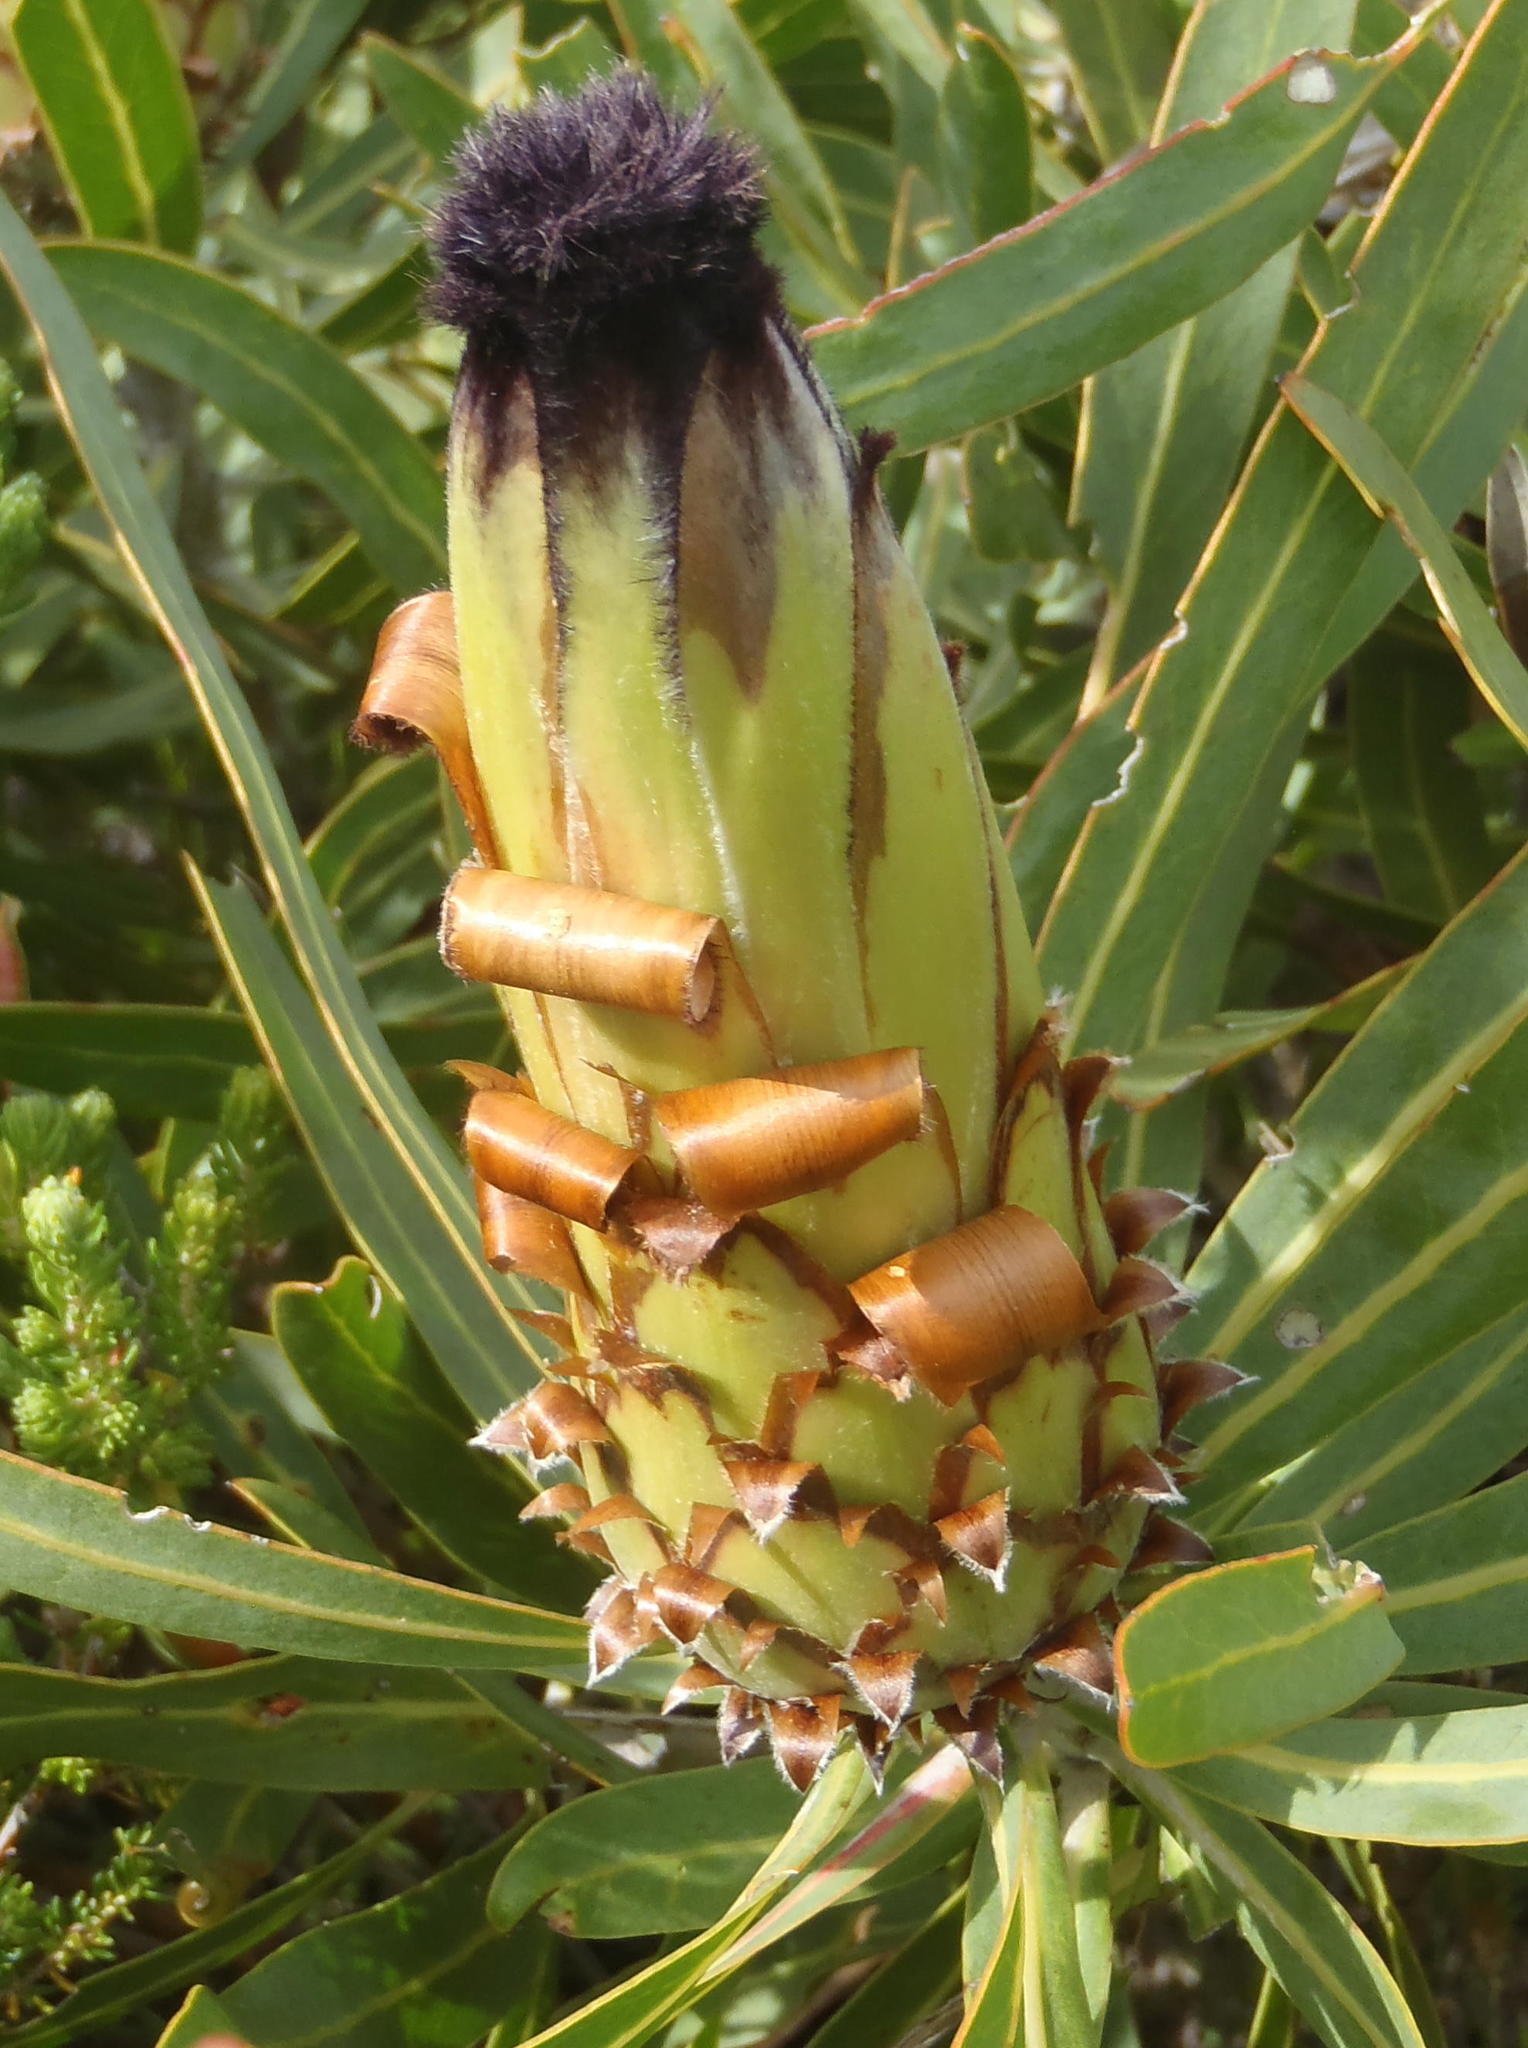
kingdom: Plantae
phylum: Tracheophyta
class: Magnoliopsida
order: Proteales
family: Proteaceae
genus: Protea
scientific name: Protea neriifolia
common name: Blue sugarbush
